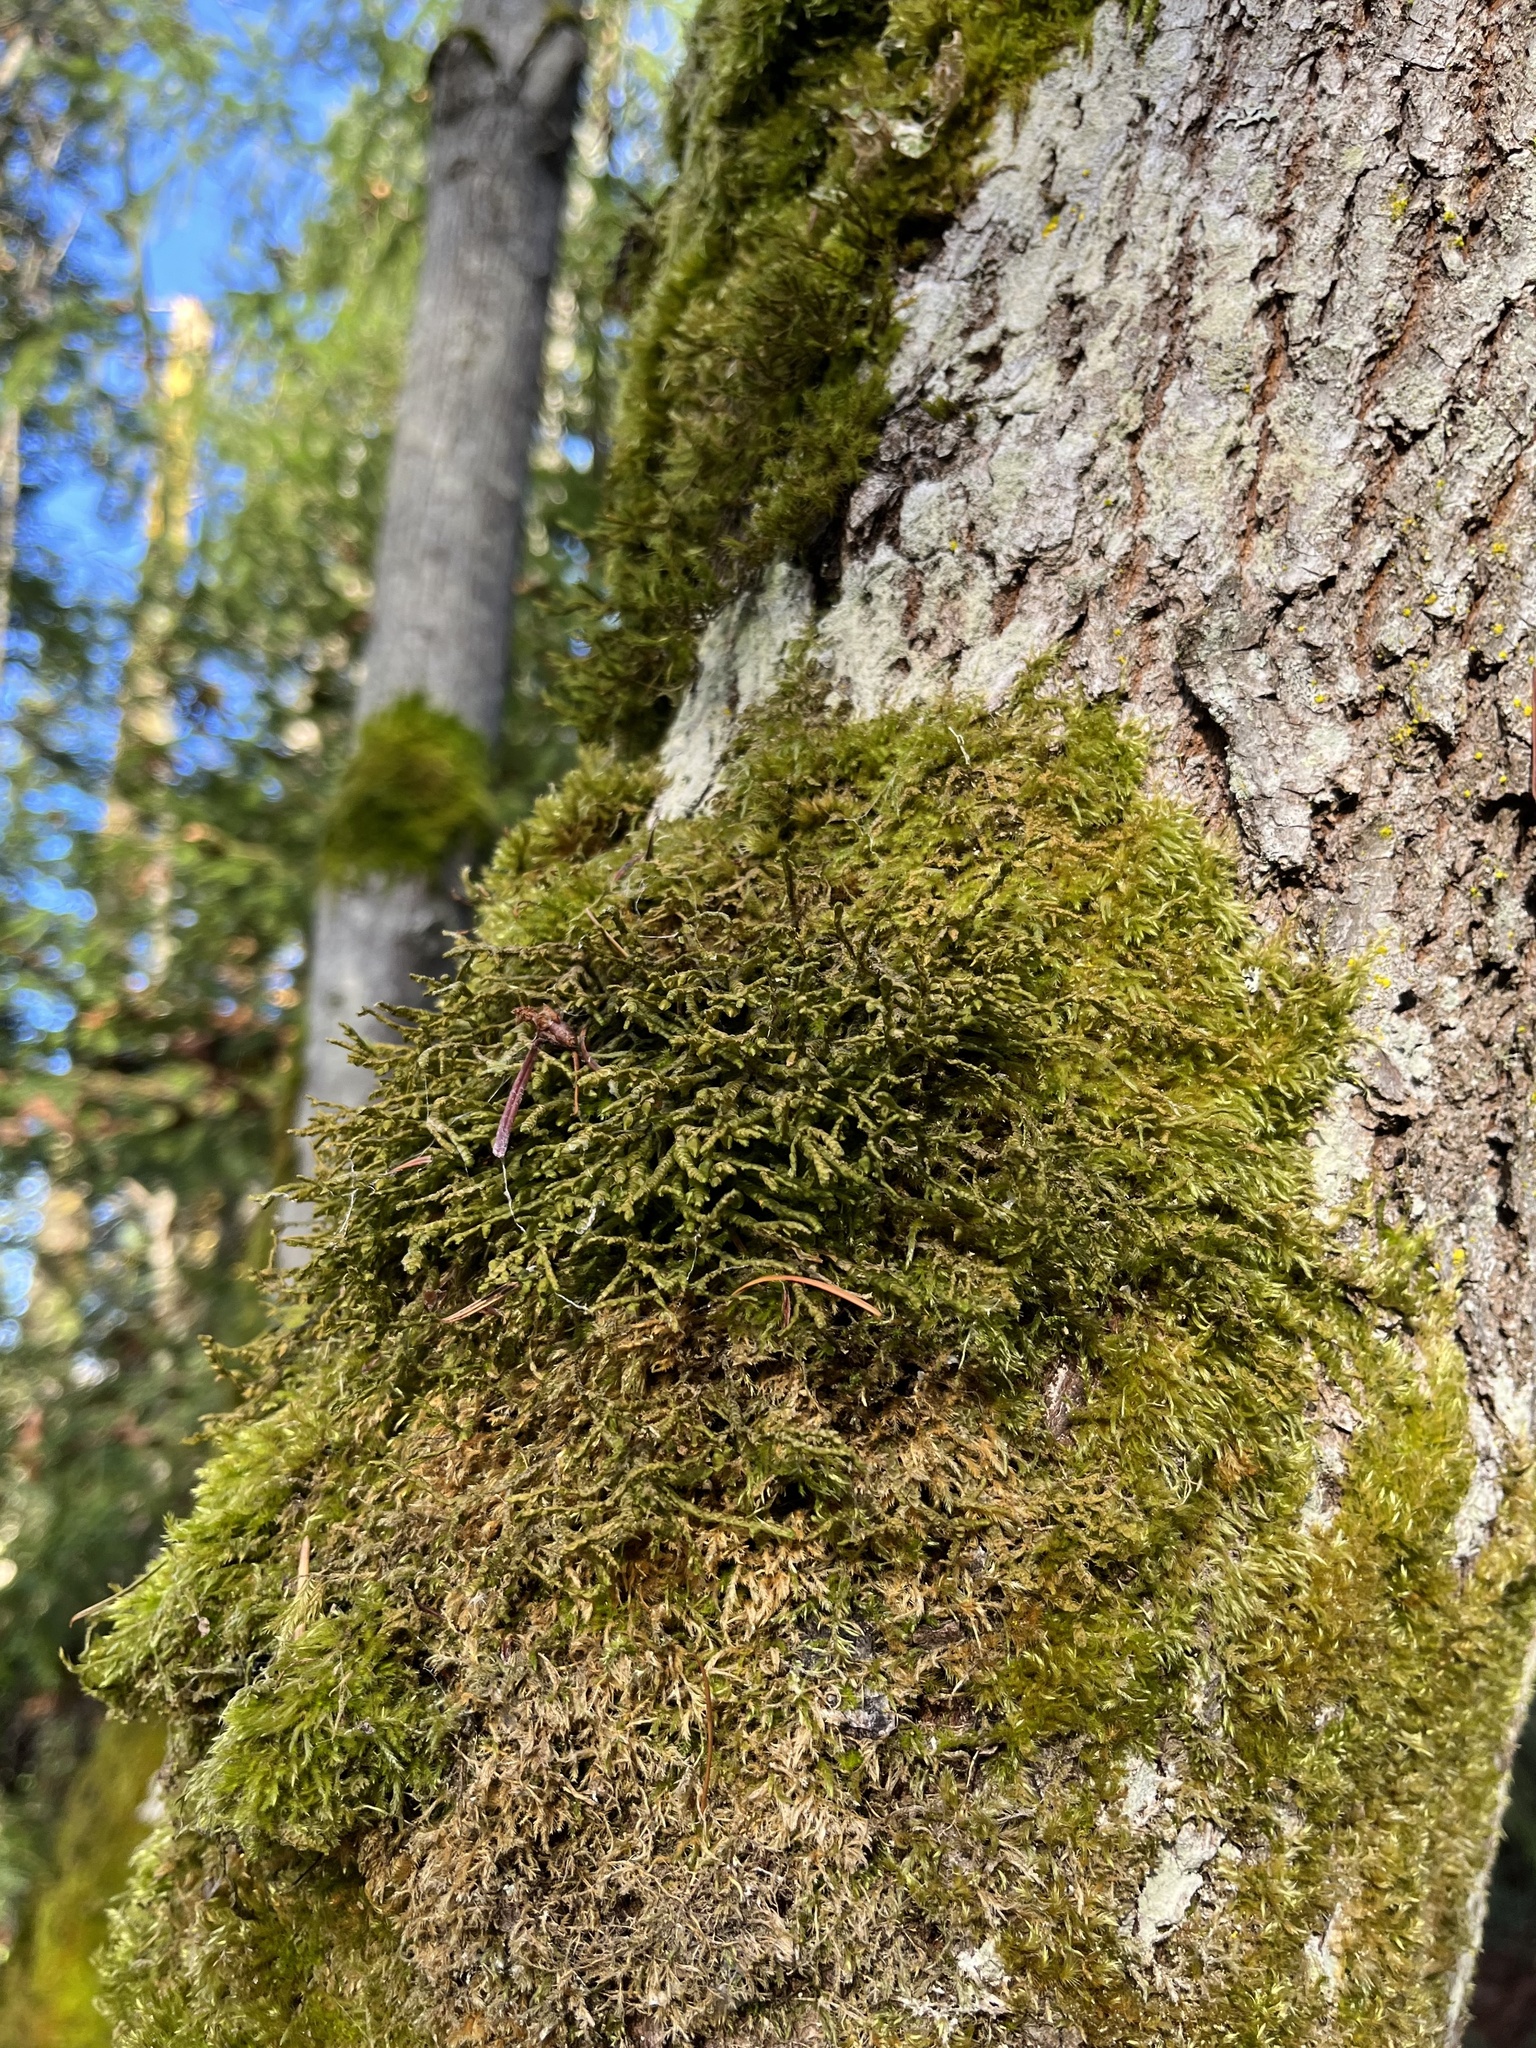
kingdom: Plantae
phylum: Marchantiophyta
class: Jungermanniopsida
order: Porellales
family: Porellaceae
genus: Porella
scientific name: Porella navicularis
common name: Tree ruffle liverwort
